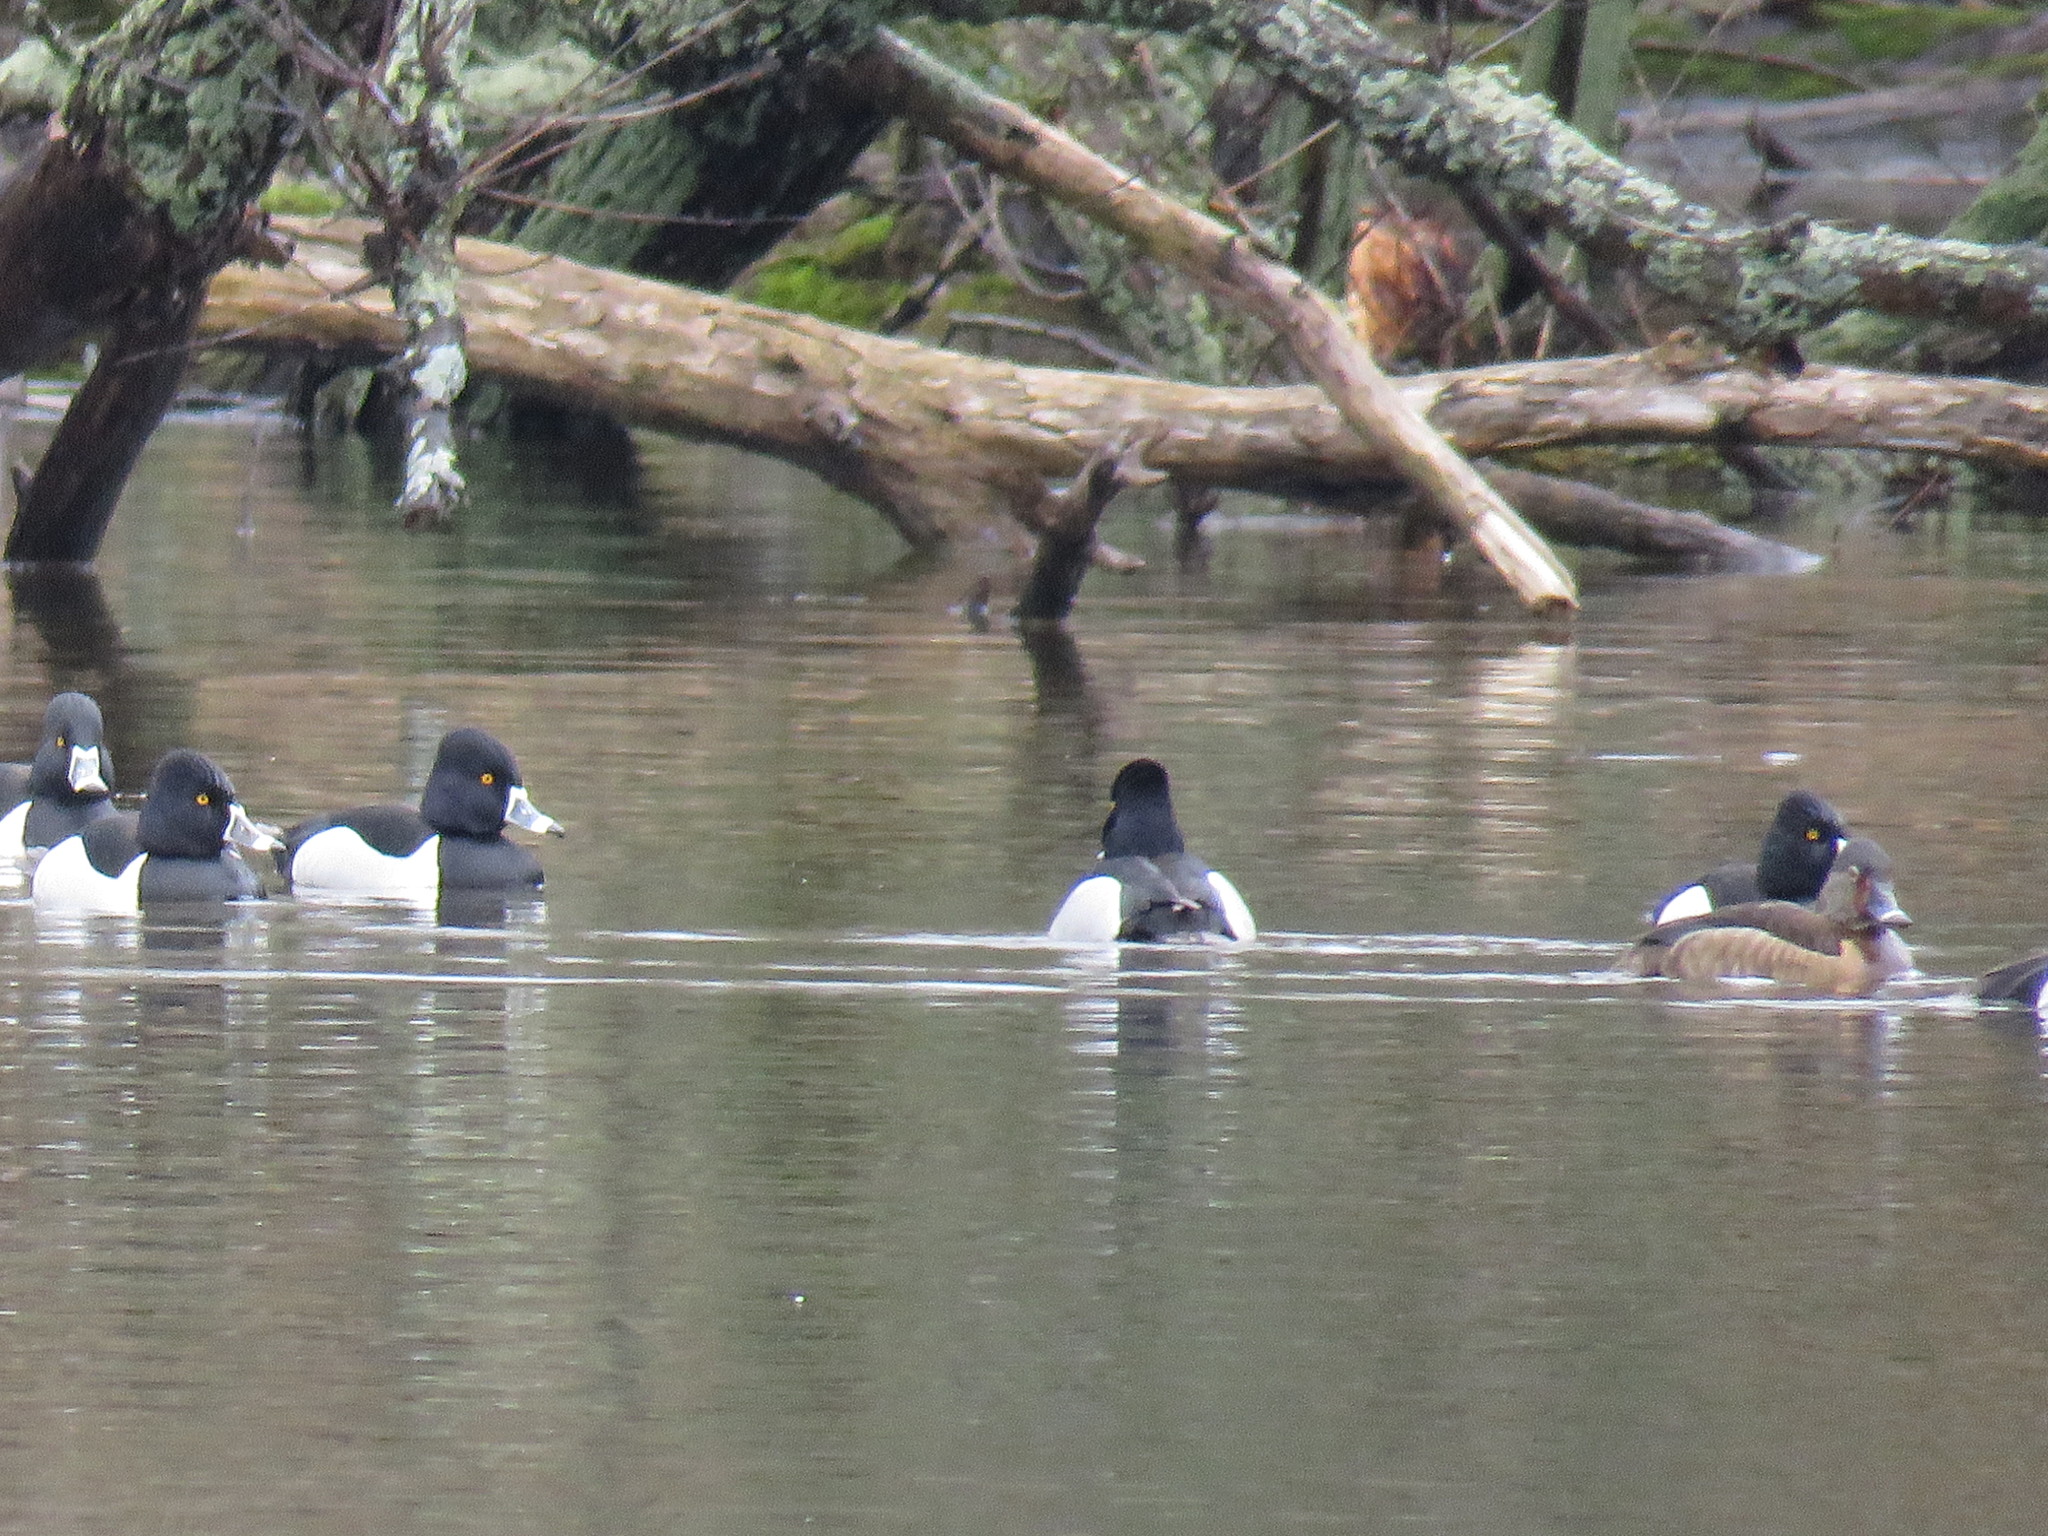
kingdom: Animalia
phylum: Chordata
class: Aves
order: Anseriformes
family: Anatidae
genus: Aythya
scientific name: Aythya collaris
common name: Ring-necked duck
